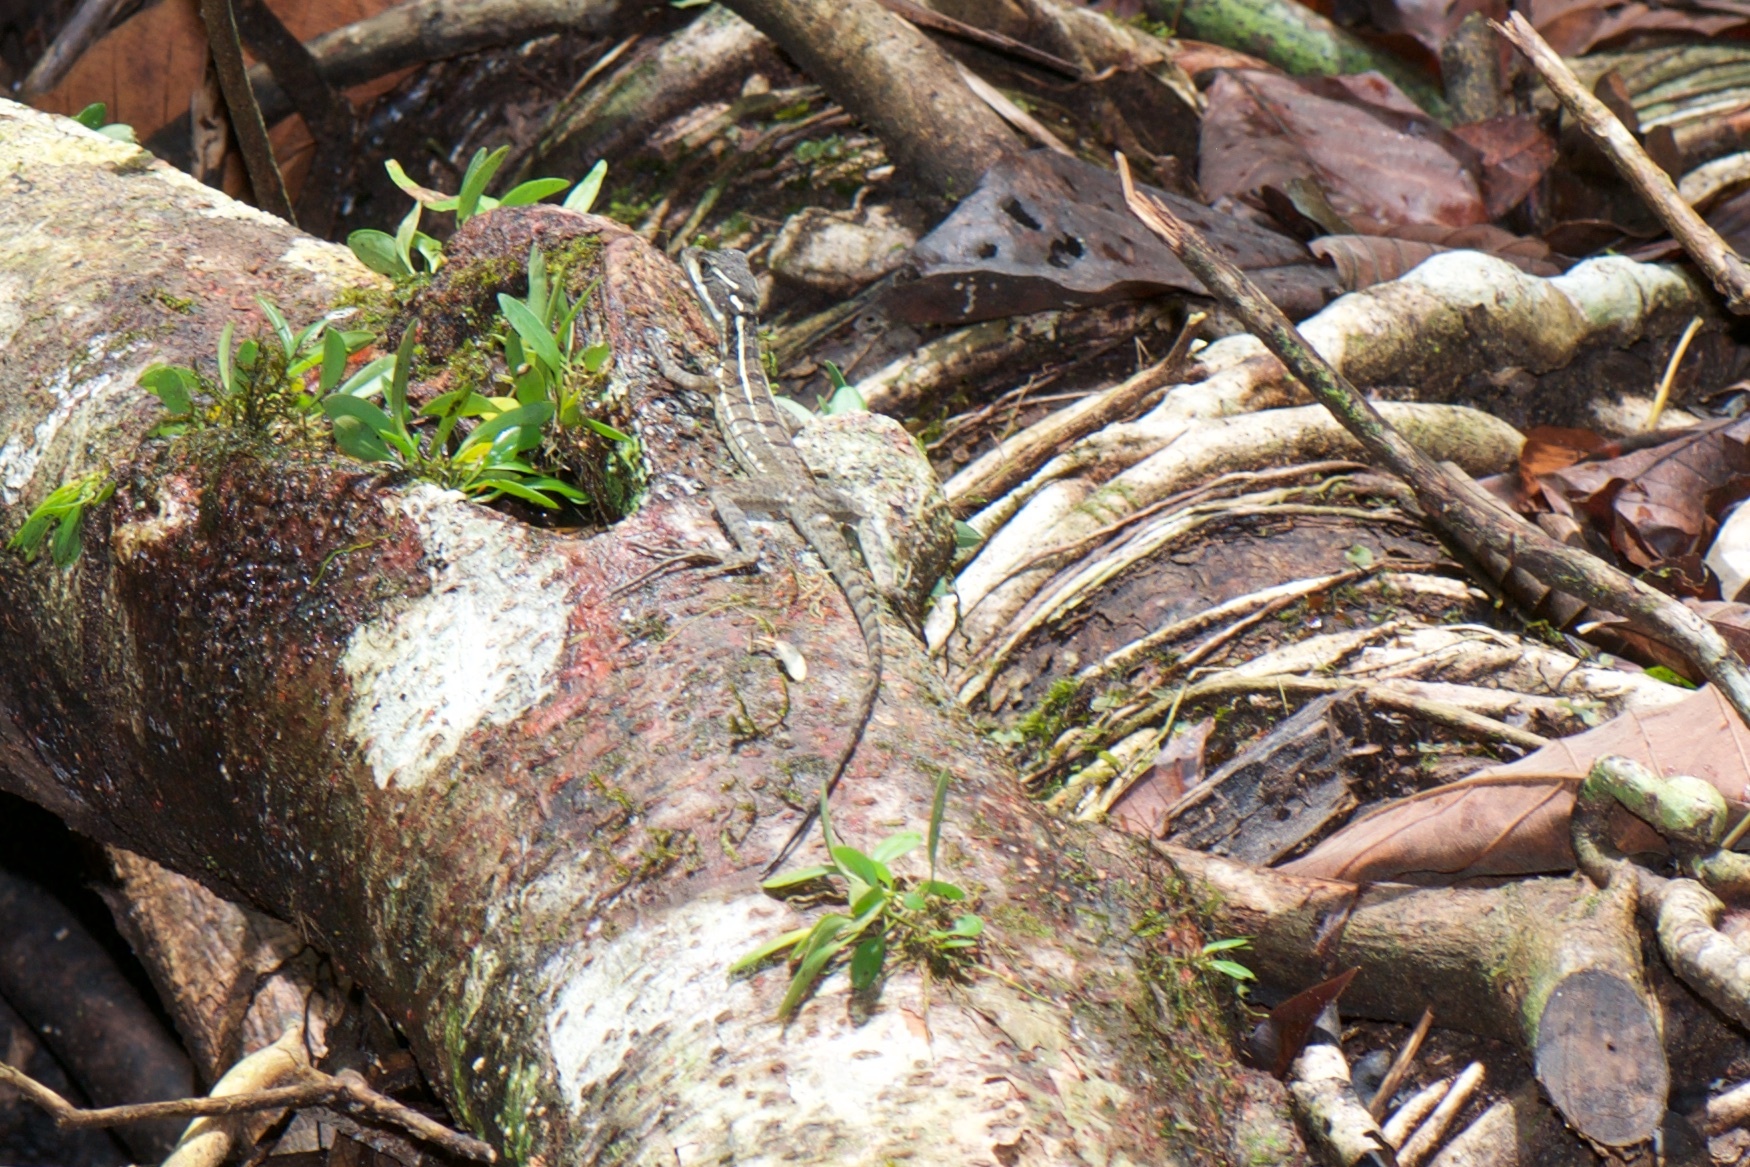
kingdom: Animalia
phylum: Chordata
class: Squamata
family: Corytophanidae
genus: Basiliscus
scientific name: Basiliscus basiliscus
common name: Common basilisk
